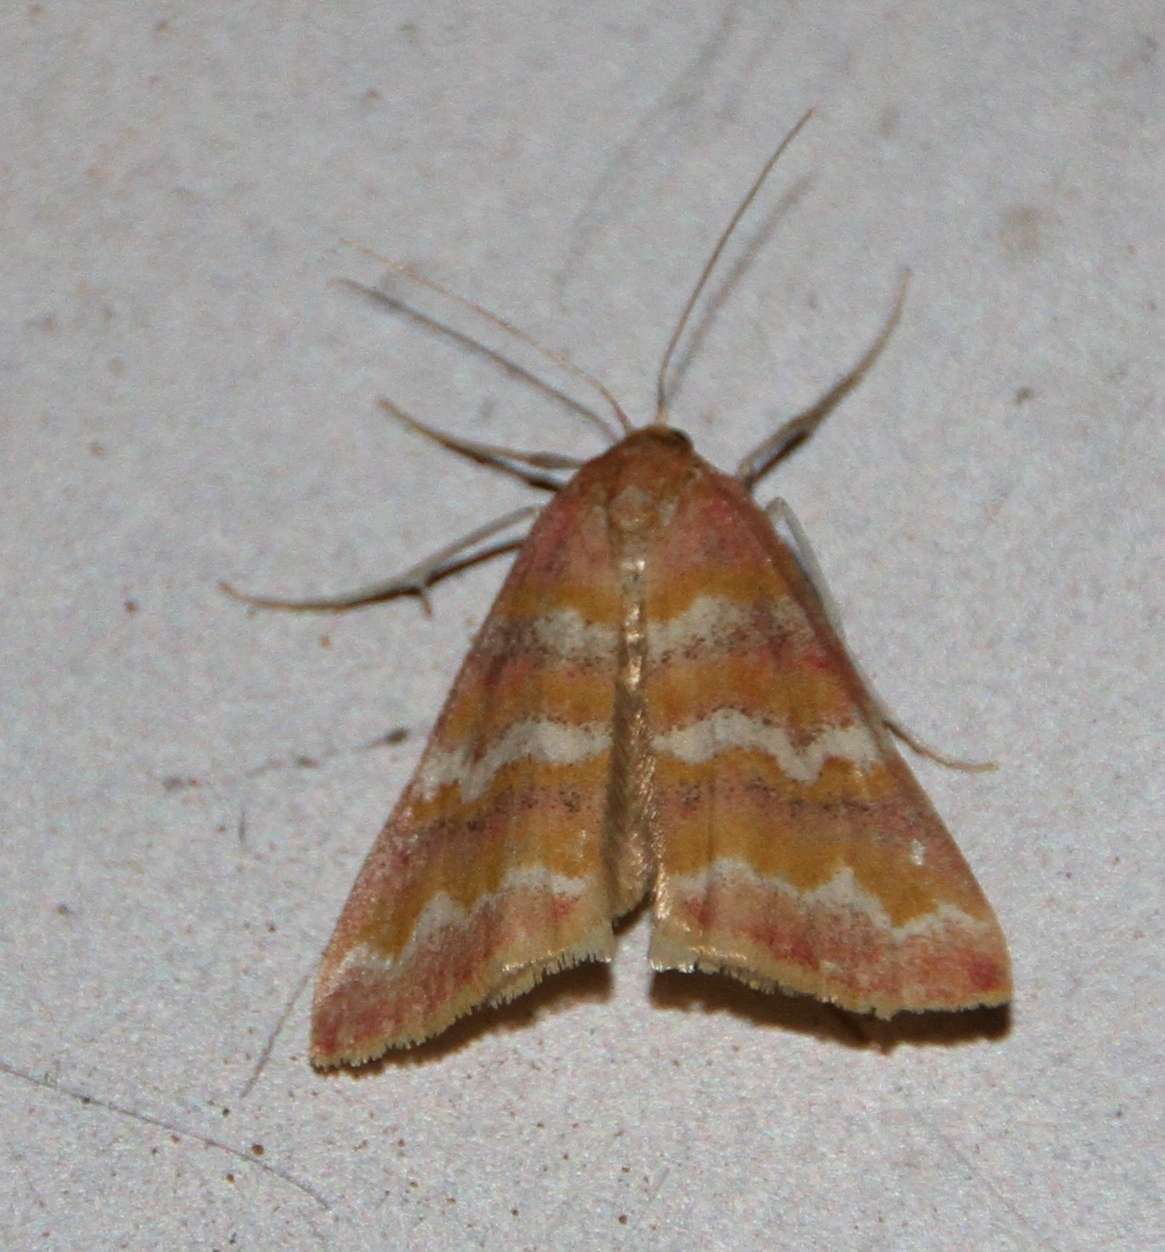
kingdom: Animalia
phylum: Arthropoda
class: Insecta
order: Lepidoptera
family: Geometridae
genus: Notiosterrha
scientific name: Notiosterrha aglaodesma
